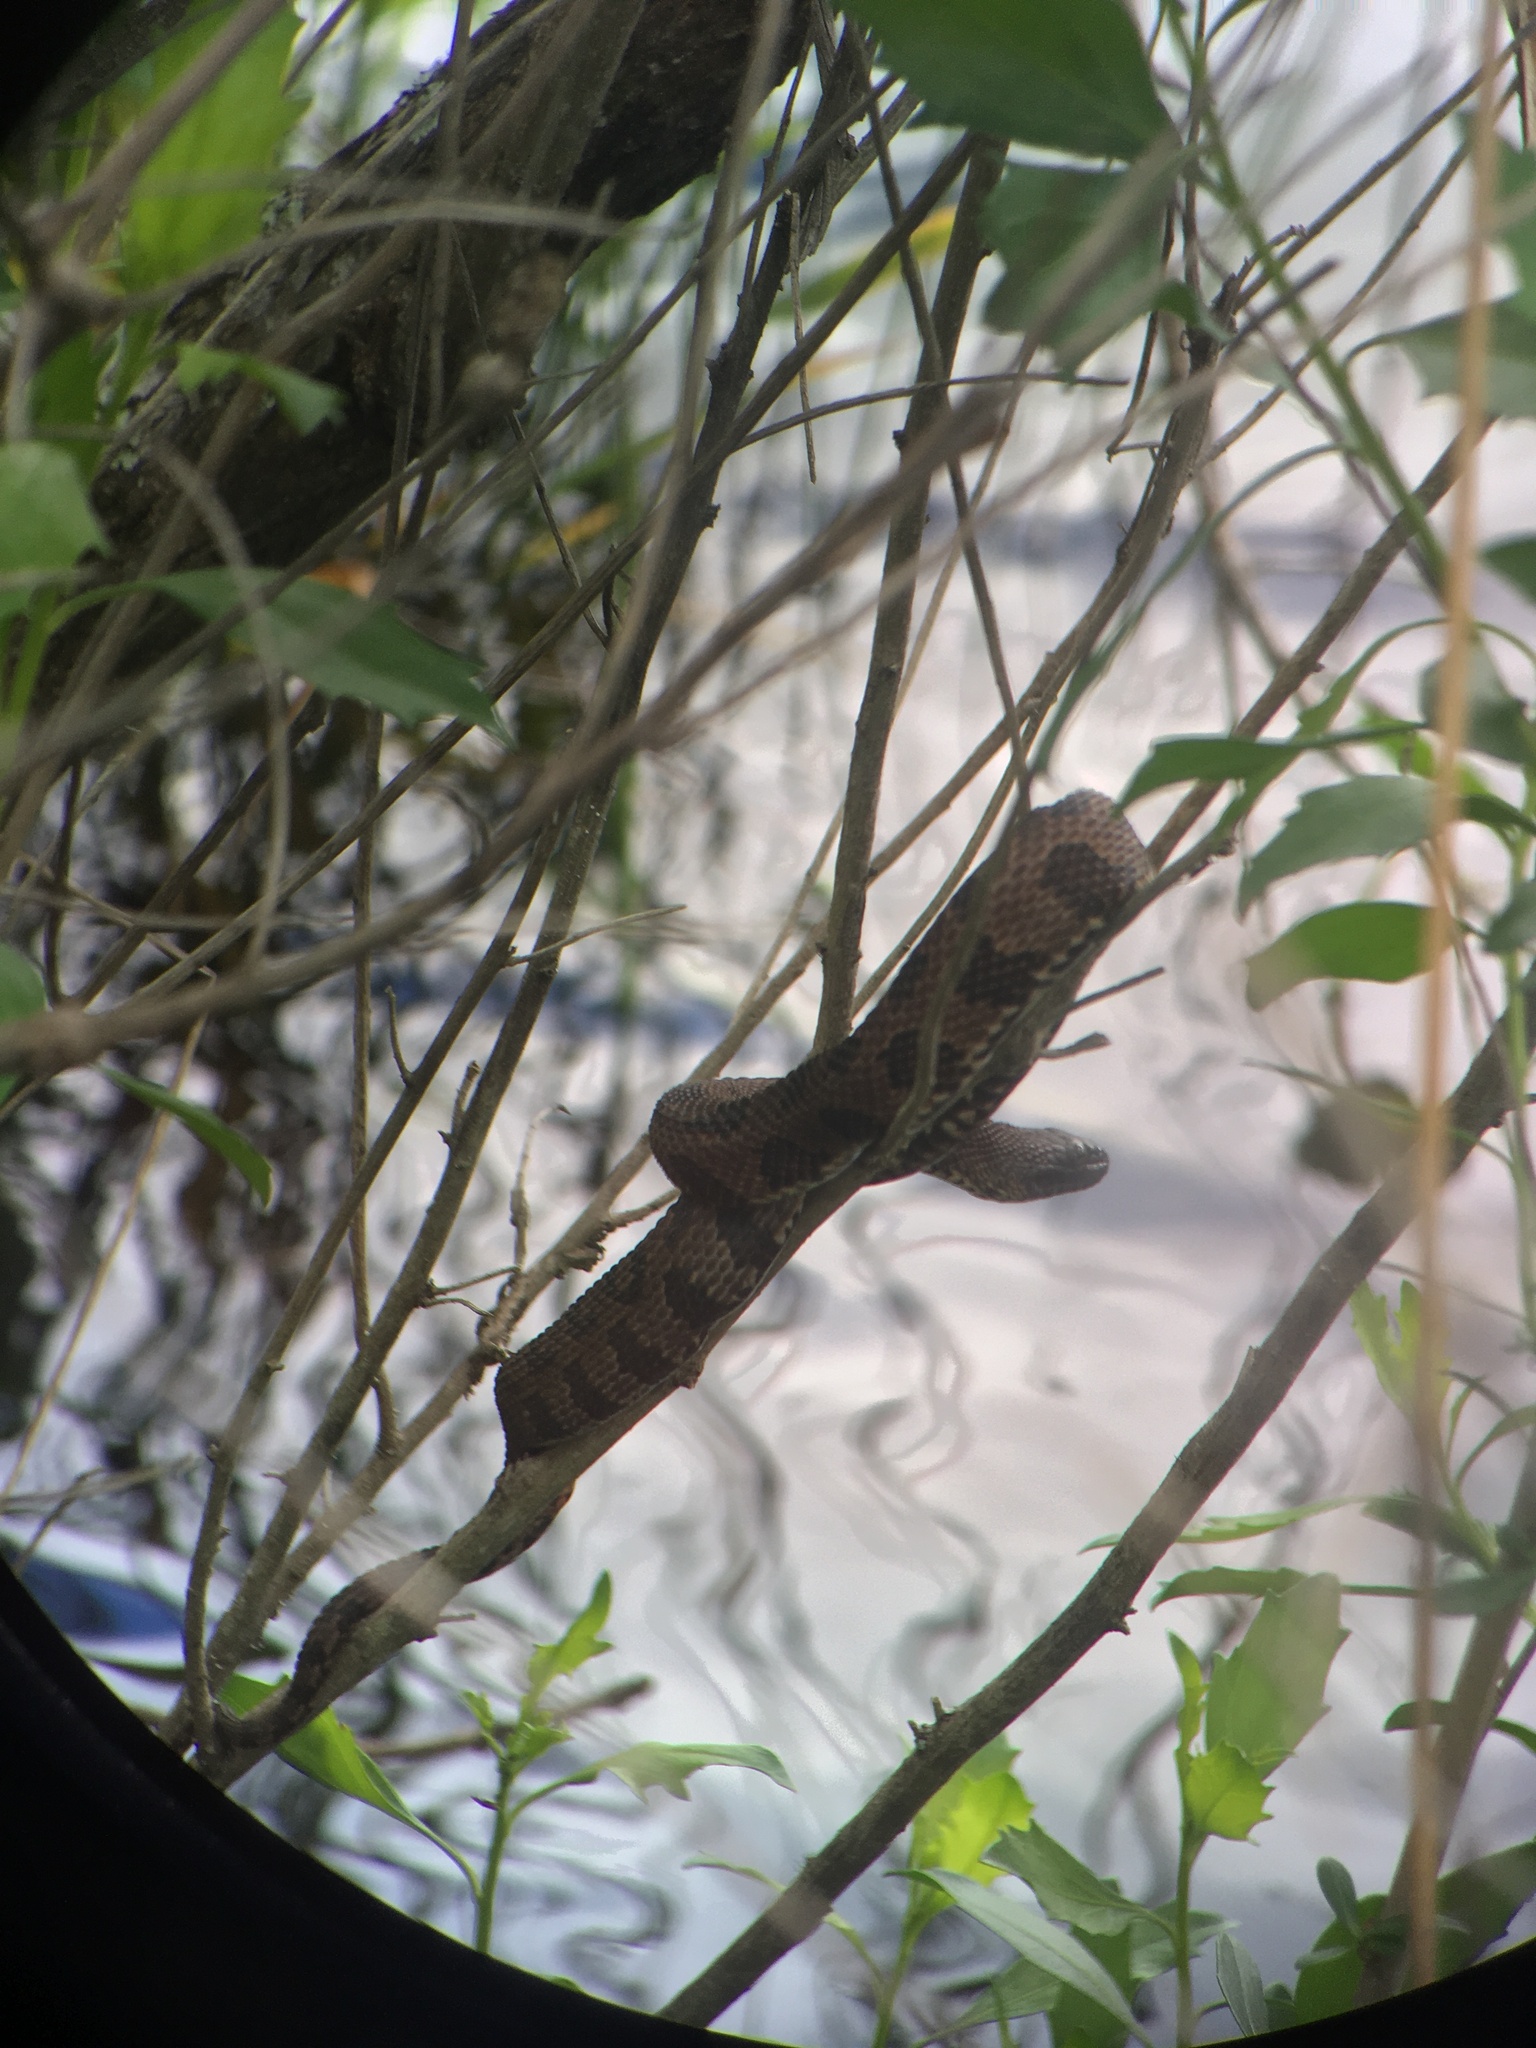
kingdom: Animalia
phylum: Chordata
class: Squamata
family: Colubridae
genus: Nerodia
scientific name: Nerodia taxispilota
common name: Brown water snake
